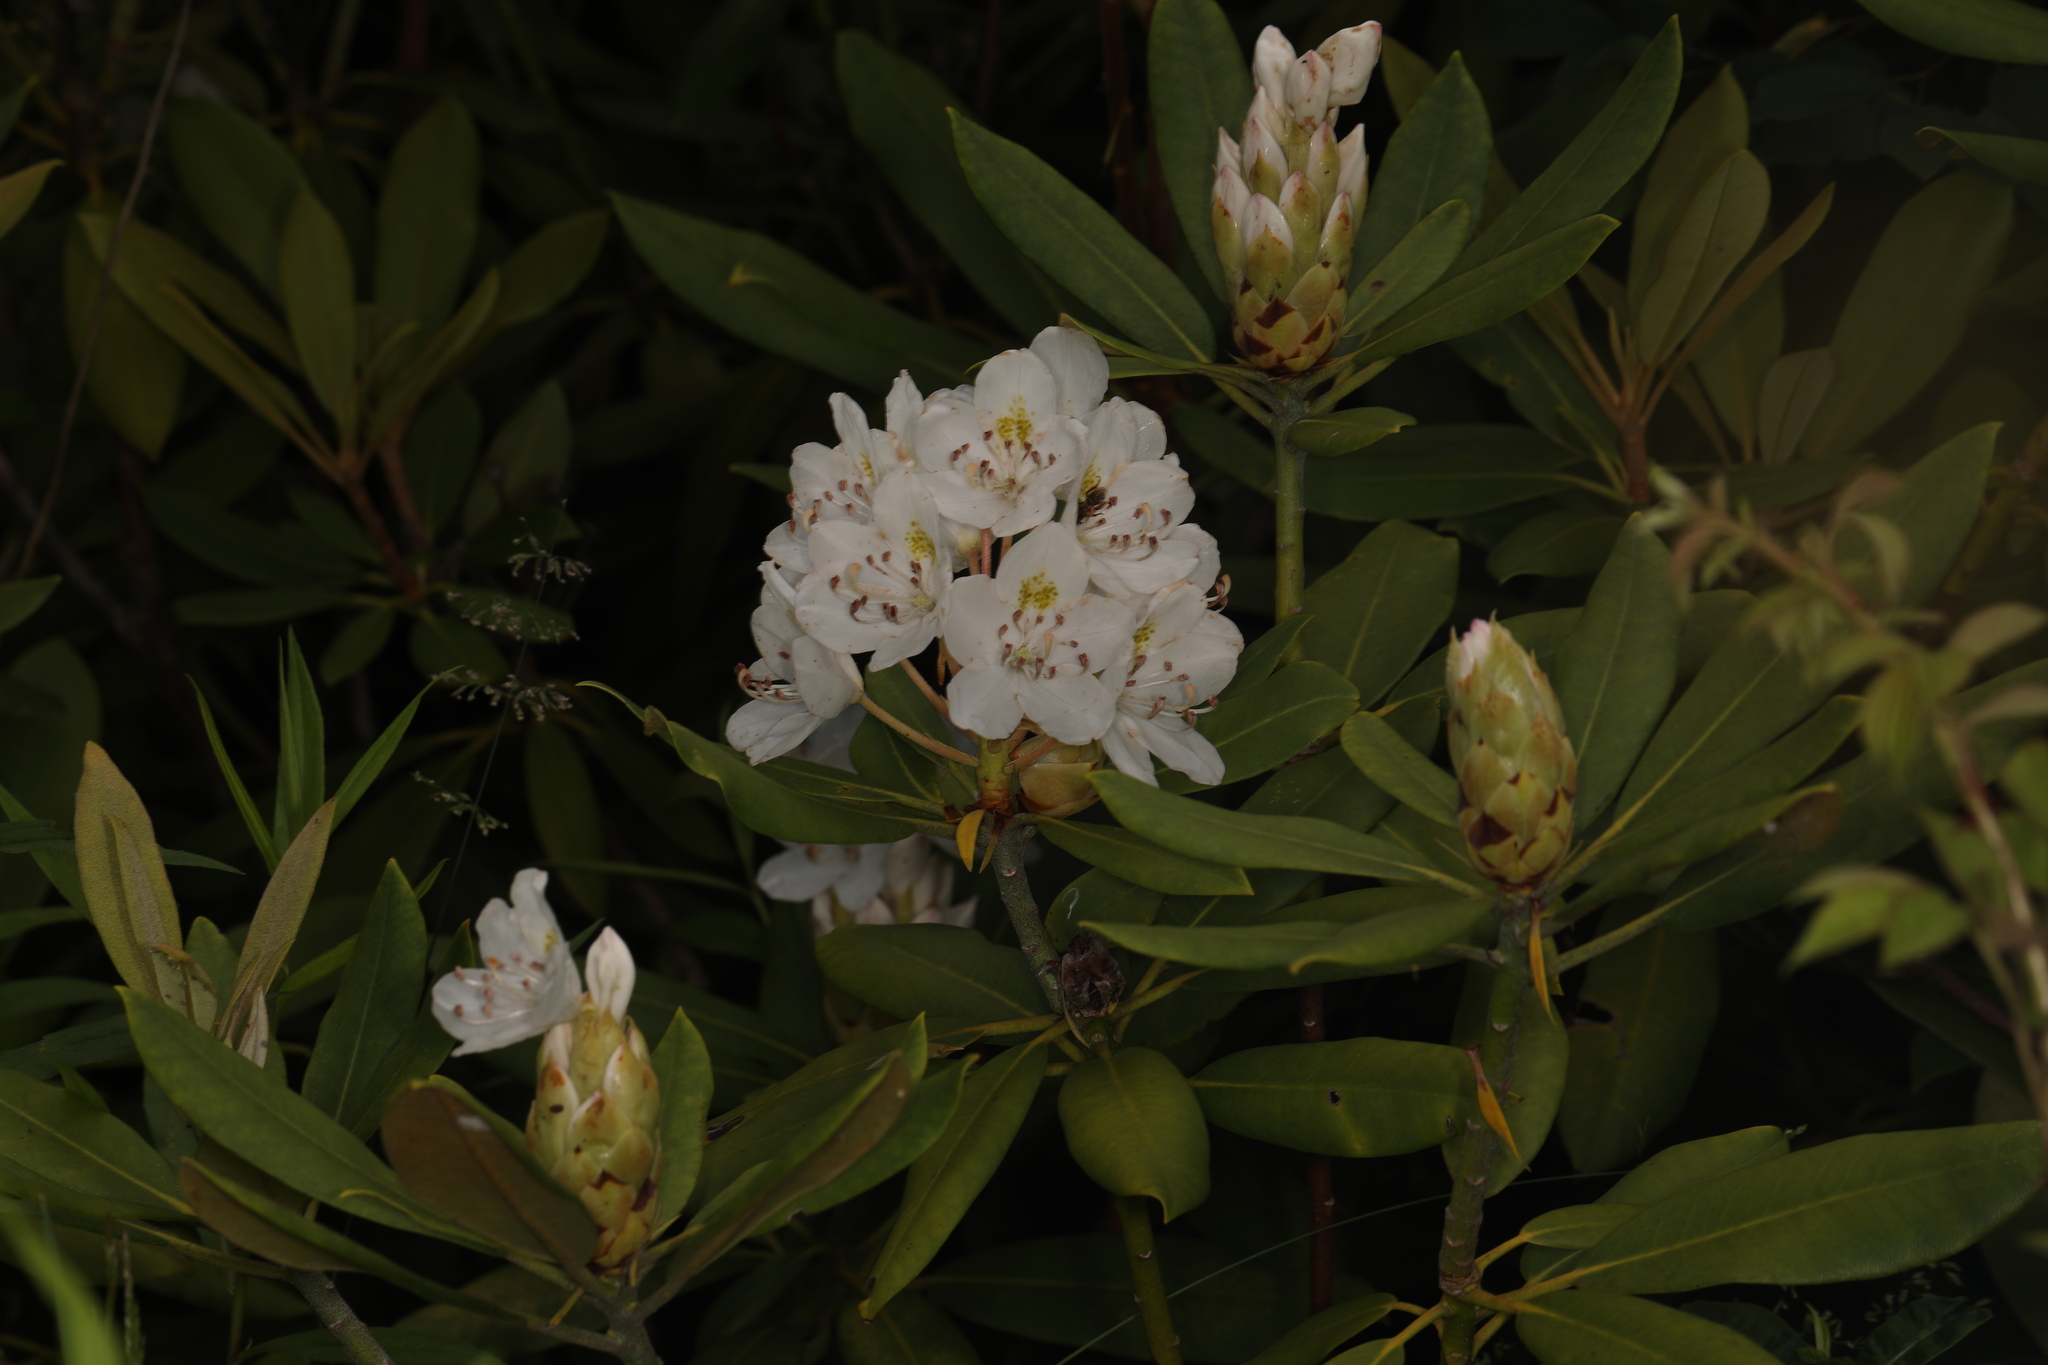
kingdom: Plantae
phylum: Tracheophyta
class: Magnoliopsida
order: Ericales
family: Ericaceae
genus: Rhododendron
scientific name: Rhododendron maximum
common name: Great rhododendron
